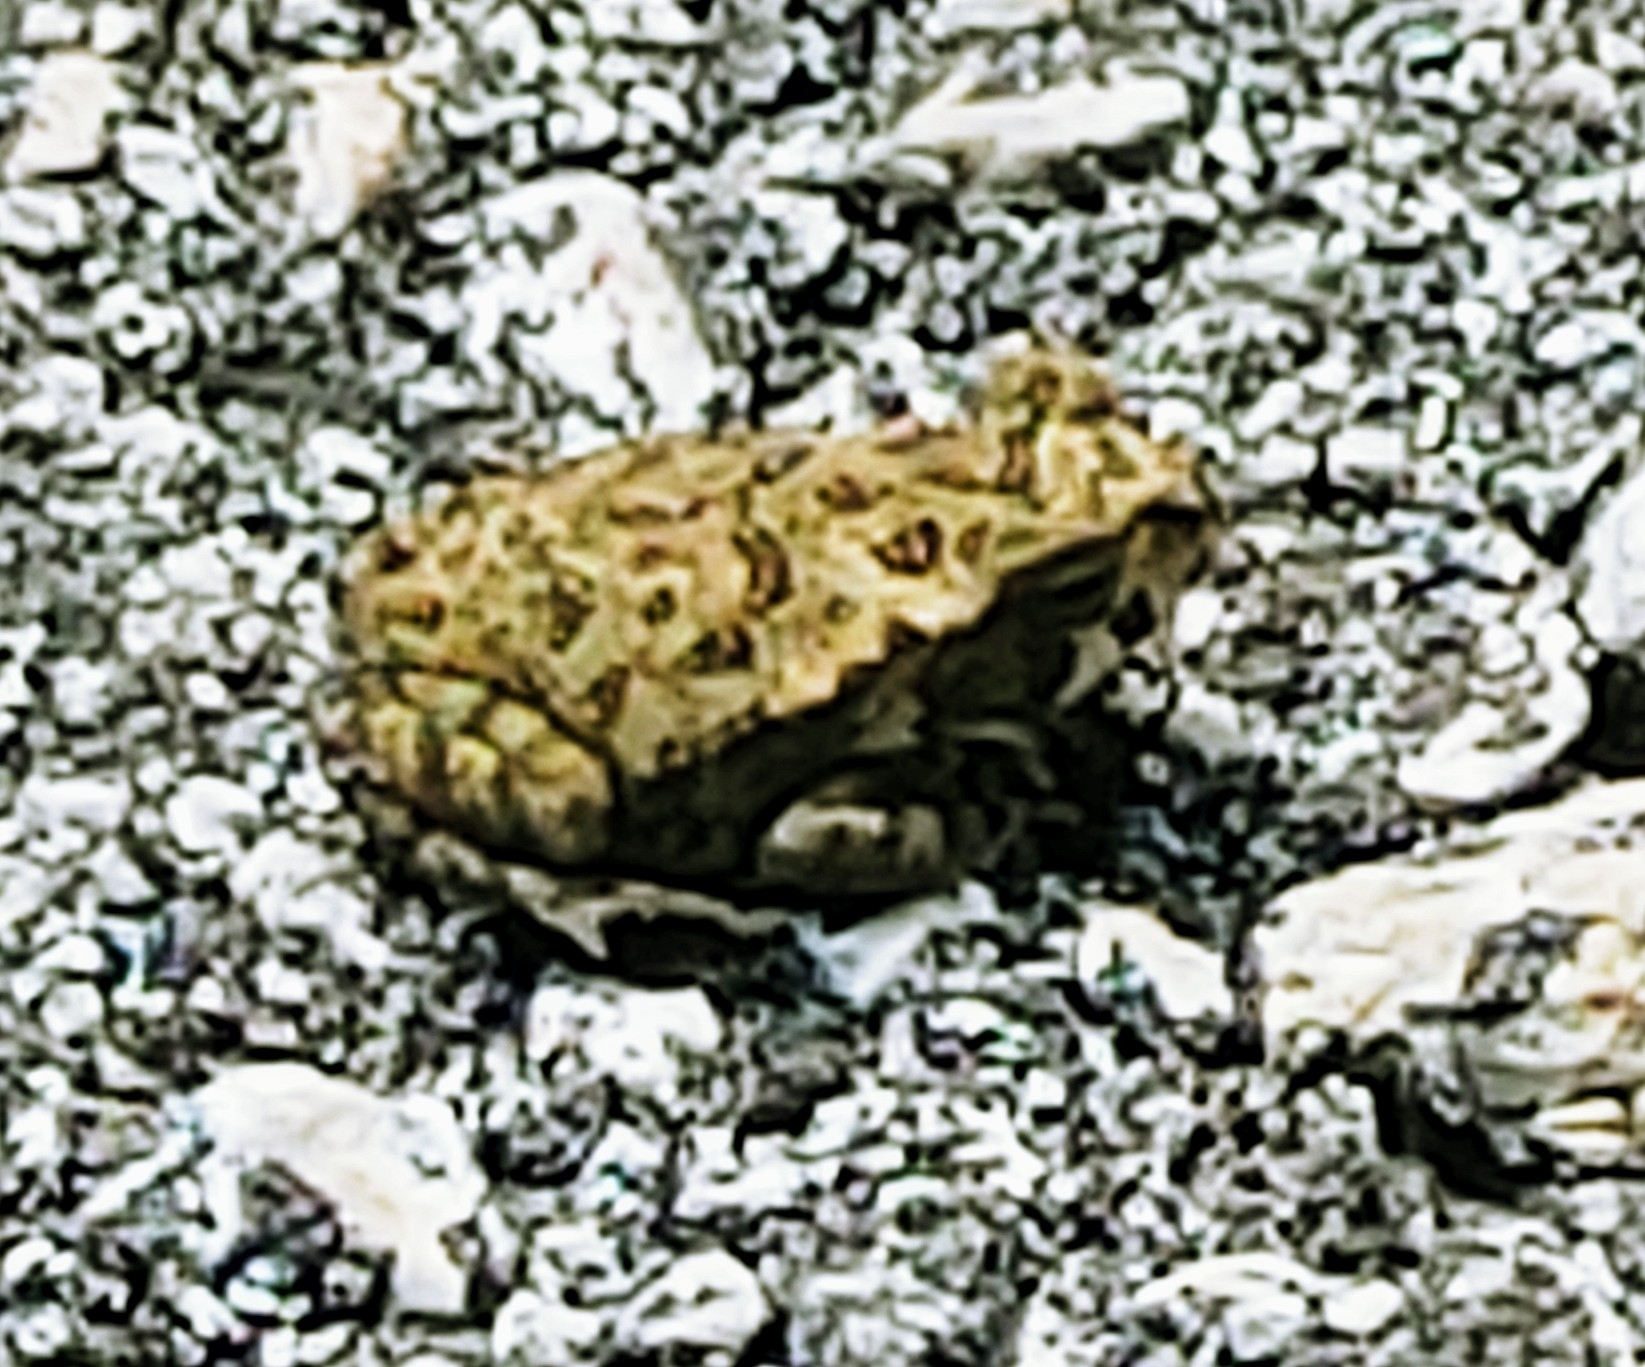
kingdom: Animalia
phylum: Chordata
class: Amphibia
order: Anura
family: Bufonidae
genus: Rhinella
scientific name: Rhinella marina
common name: Cane toad
